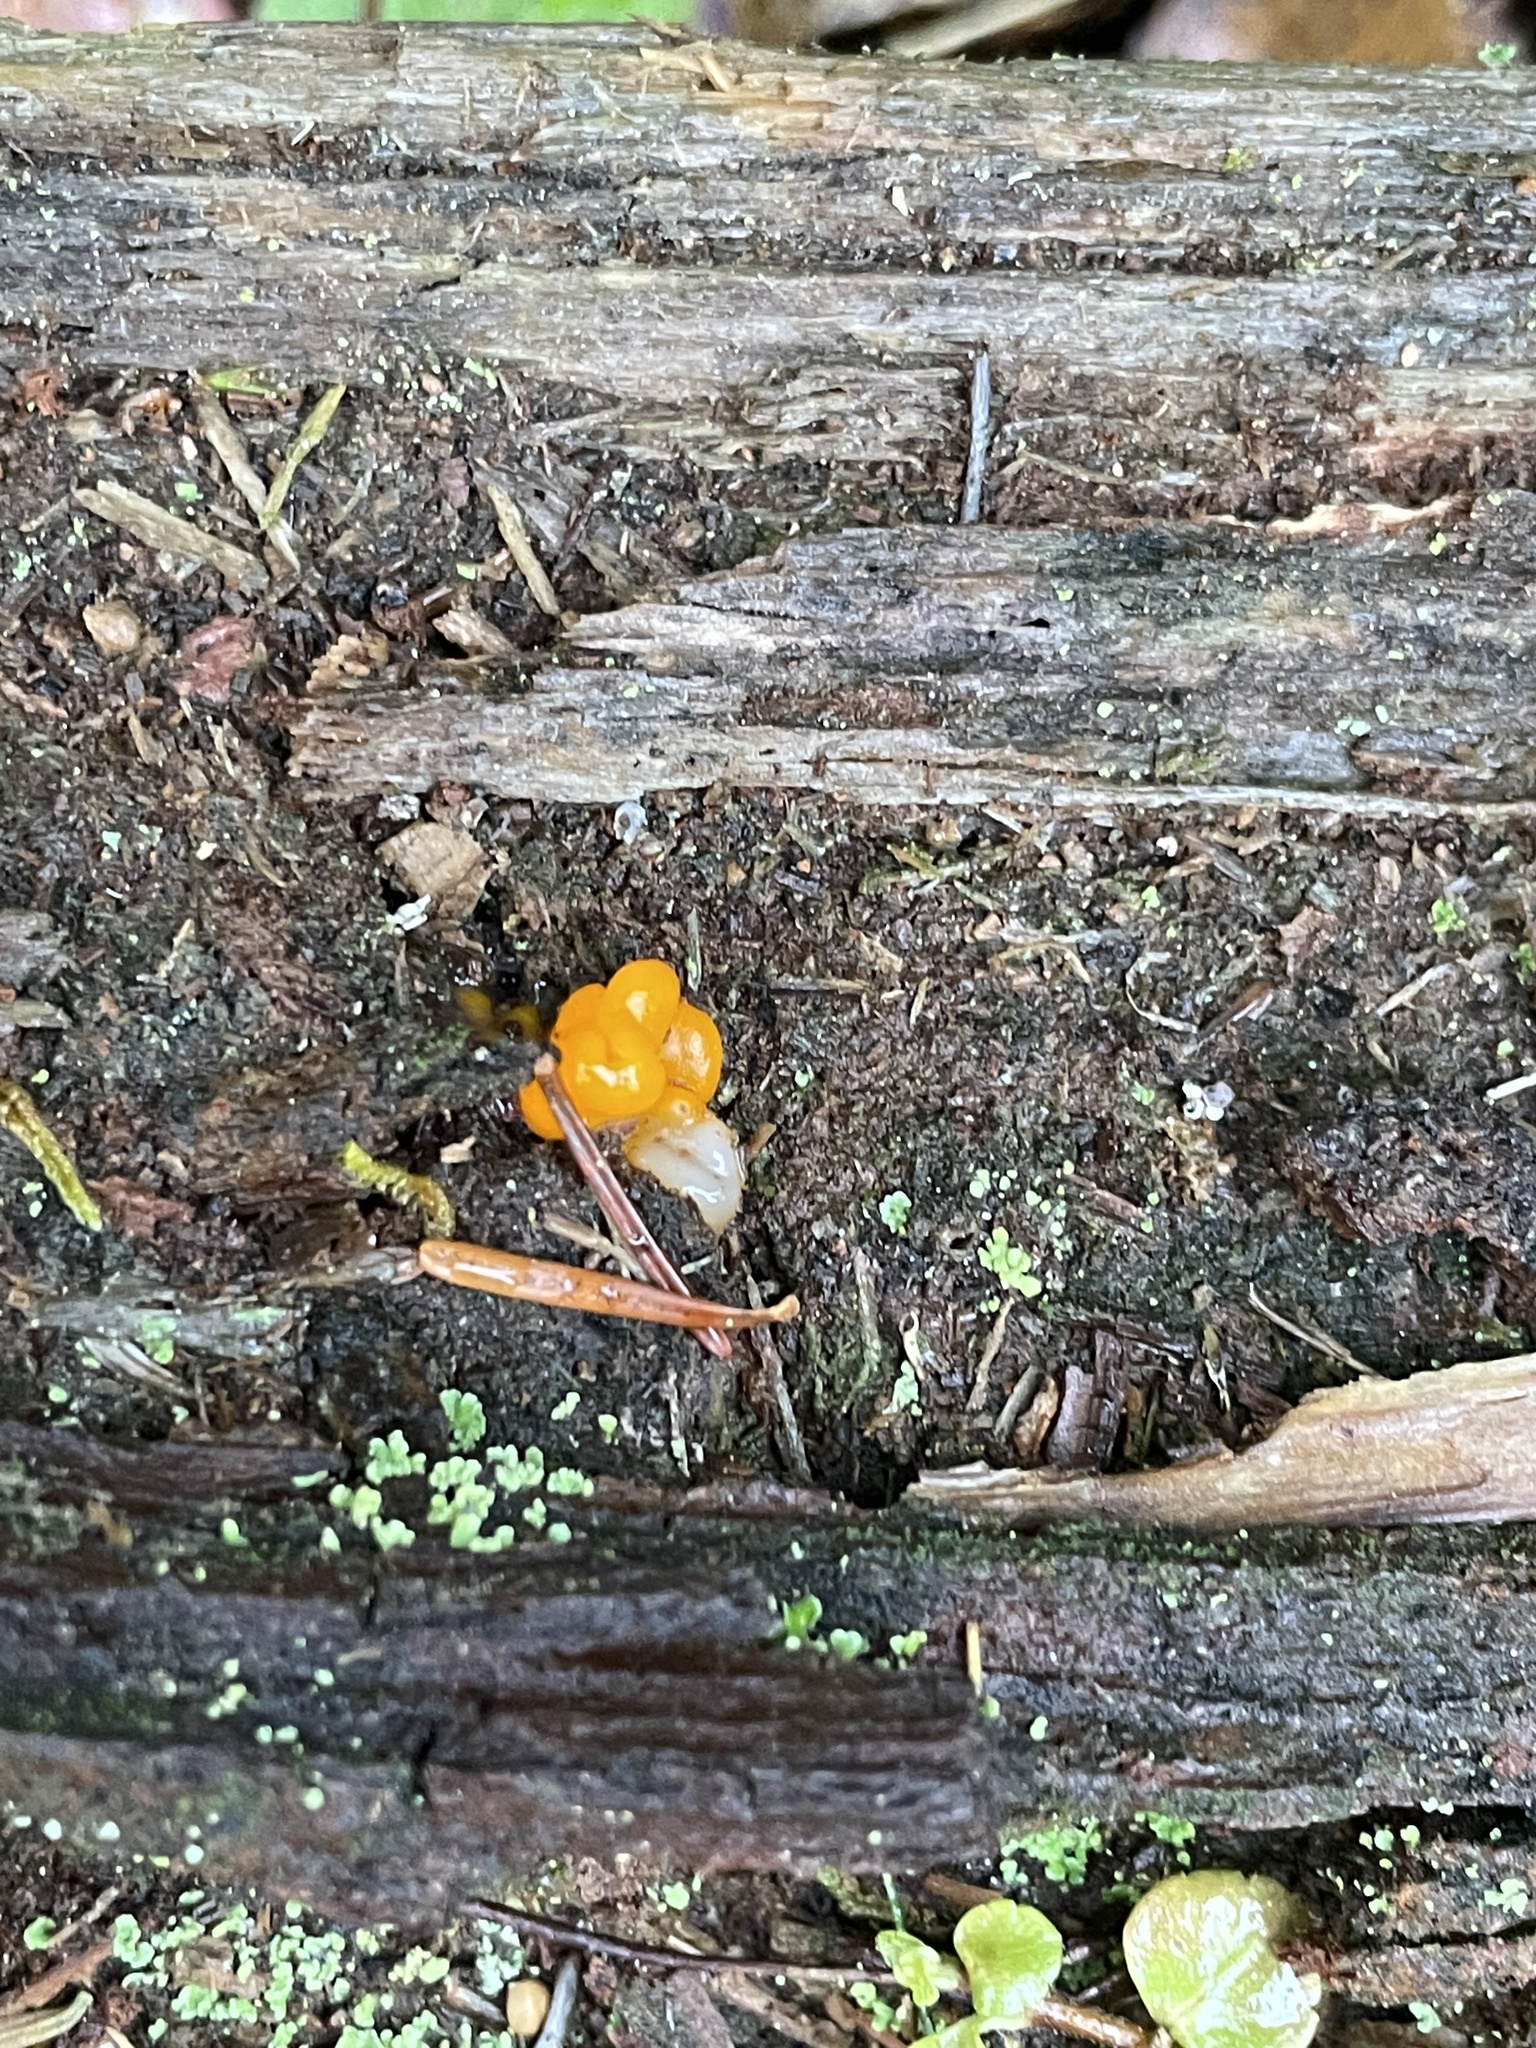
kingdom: Fungi
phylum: Basidiomycota
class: Dacrymycetes
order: Dacrymycetales
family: Dacrymycetaceae
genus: Dacrymyces
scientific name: Dacrymyces chrysospermus
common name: Orange jelly spot
